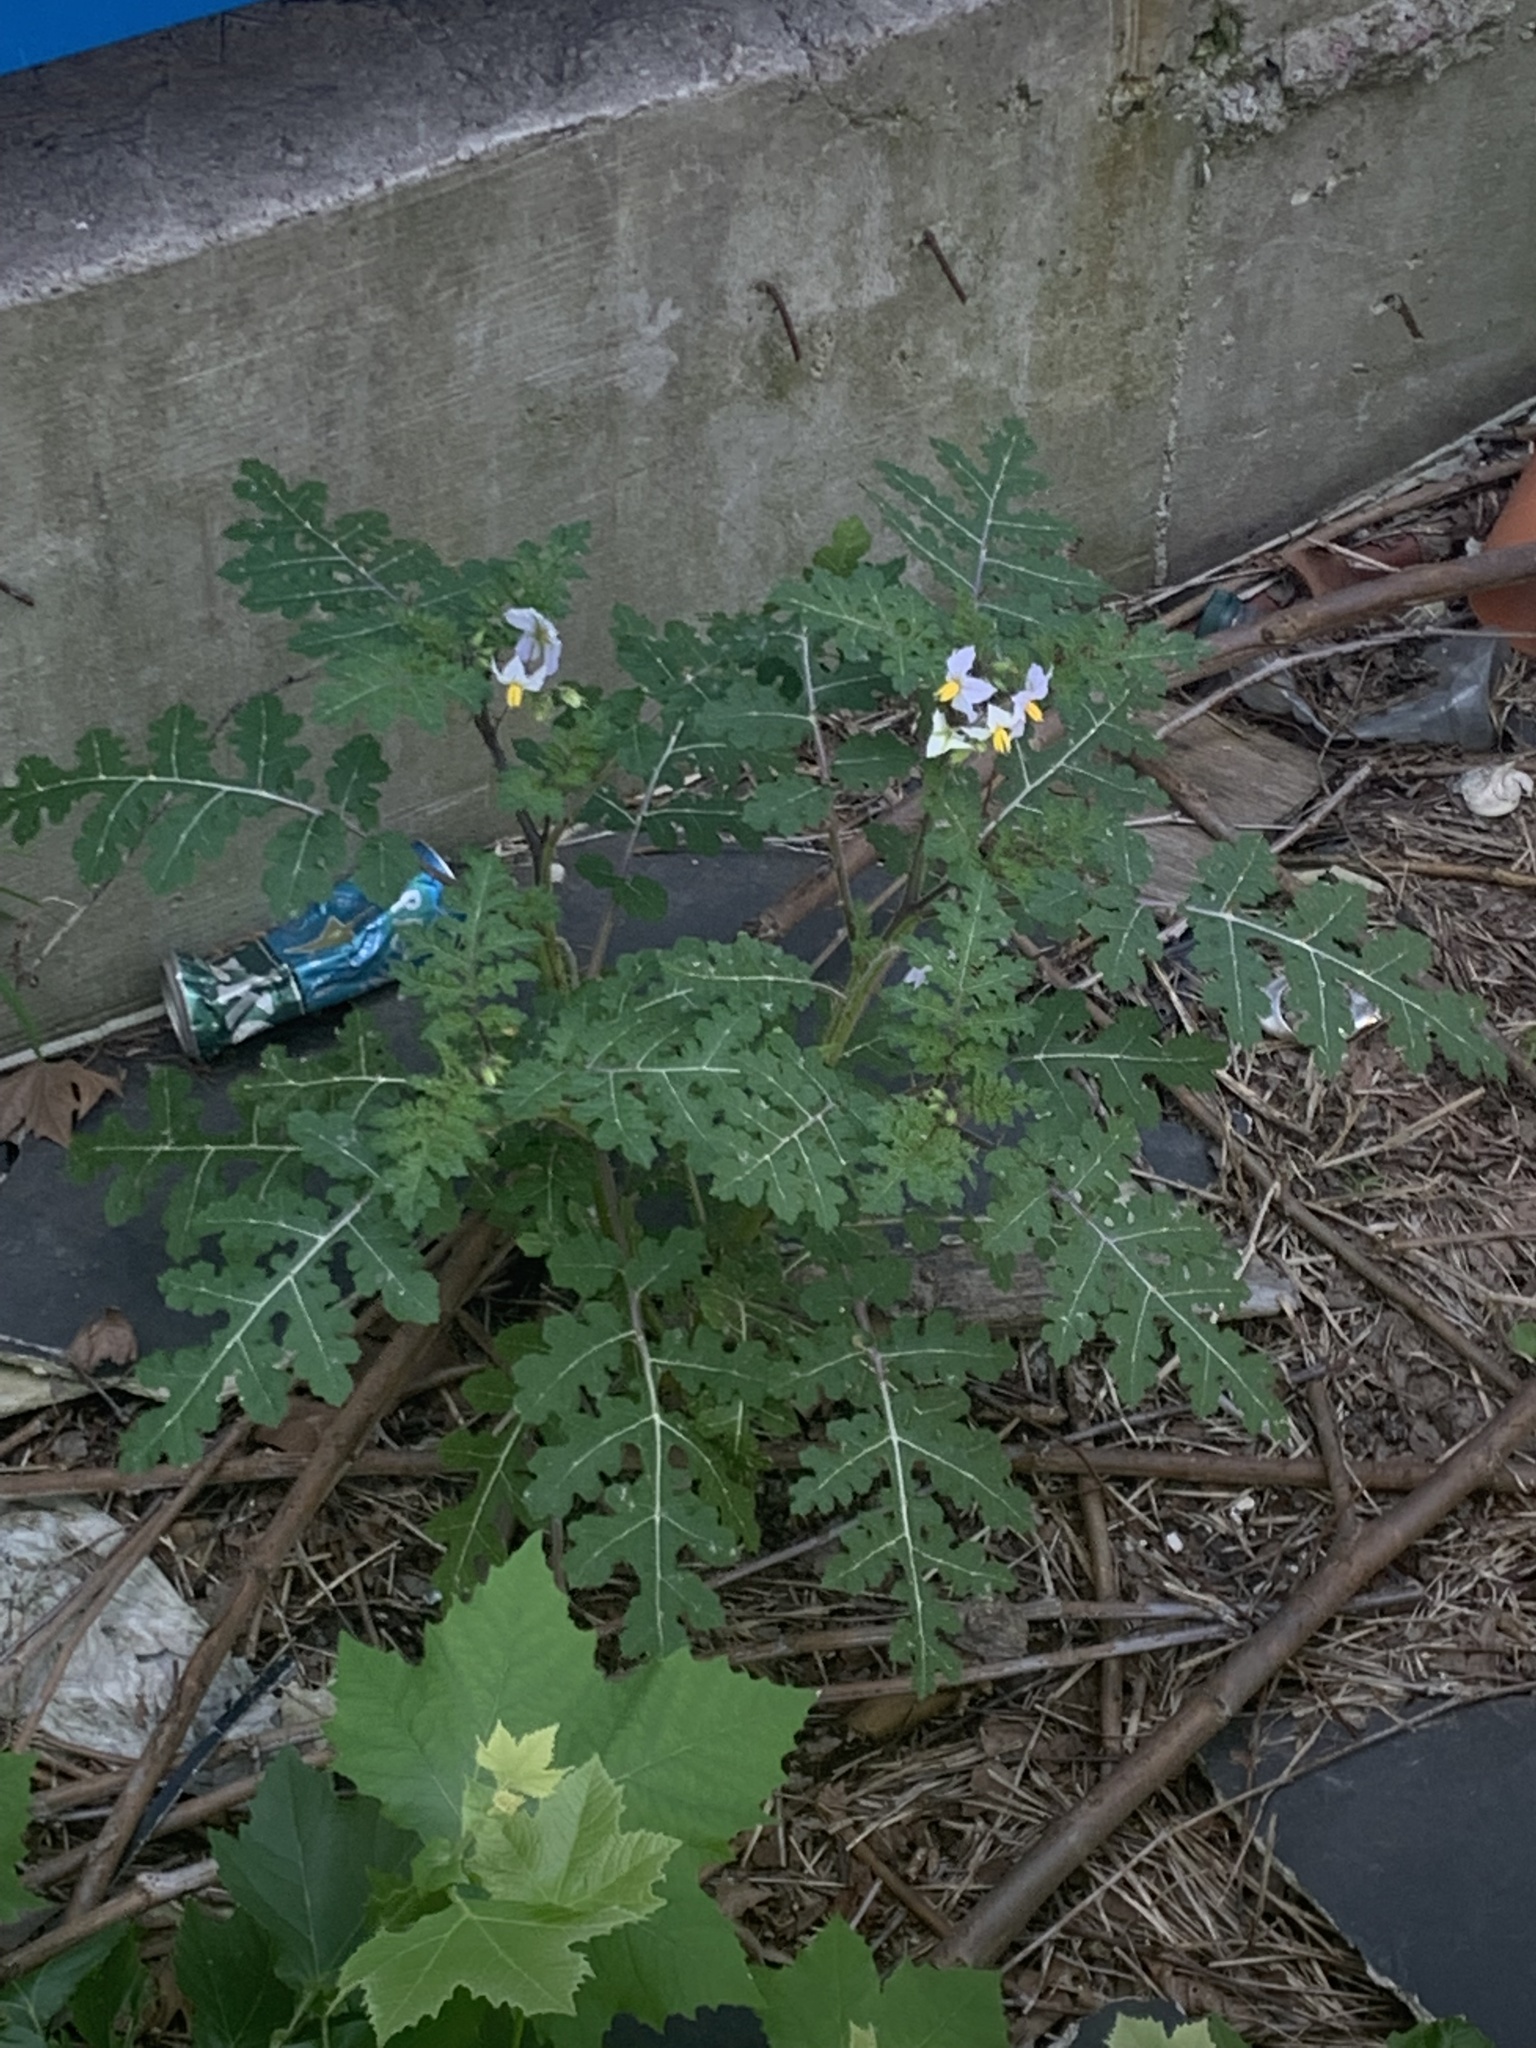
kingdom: Plantae
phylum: Tracheophyta
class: Magnoliopsida
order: Solanales
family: Solanaceae
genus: Solanum
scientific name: Solanum sisymbriifolium
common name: Red buffalo-bur
